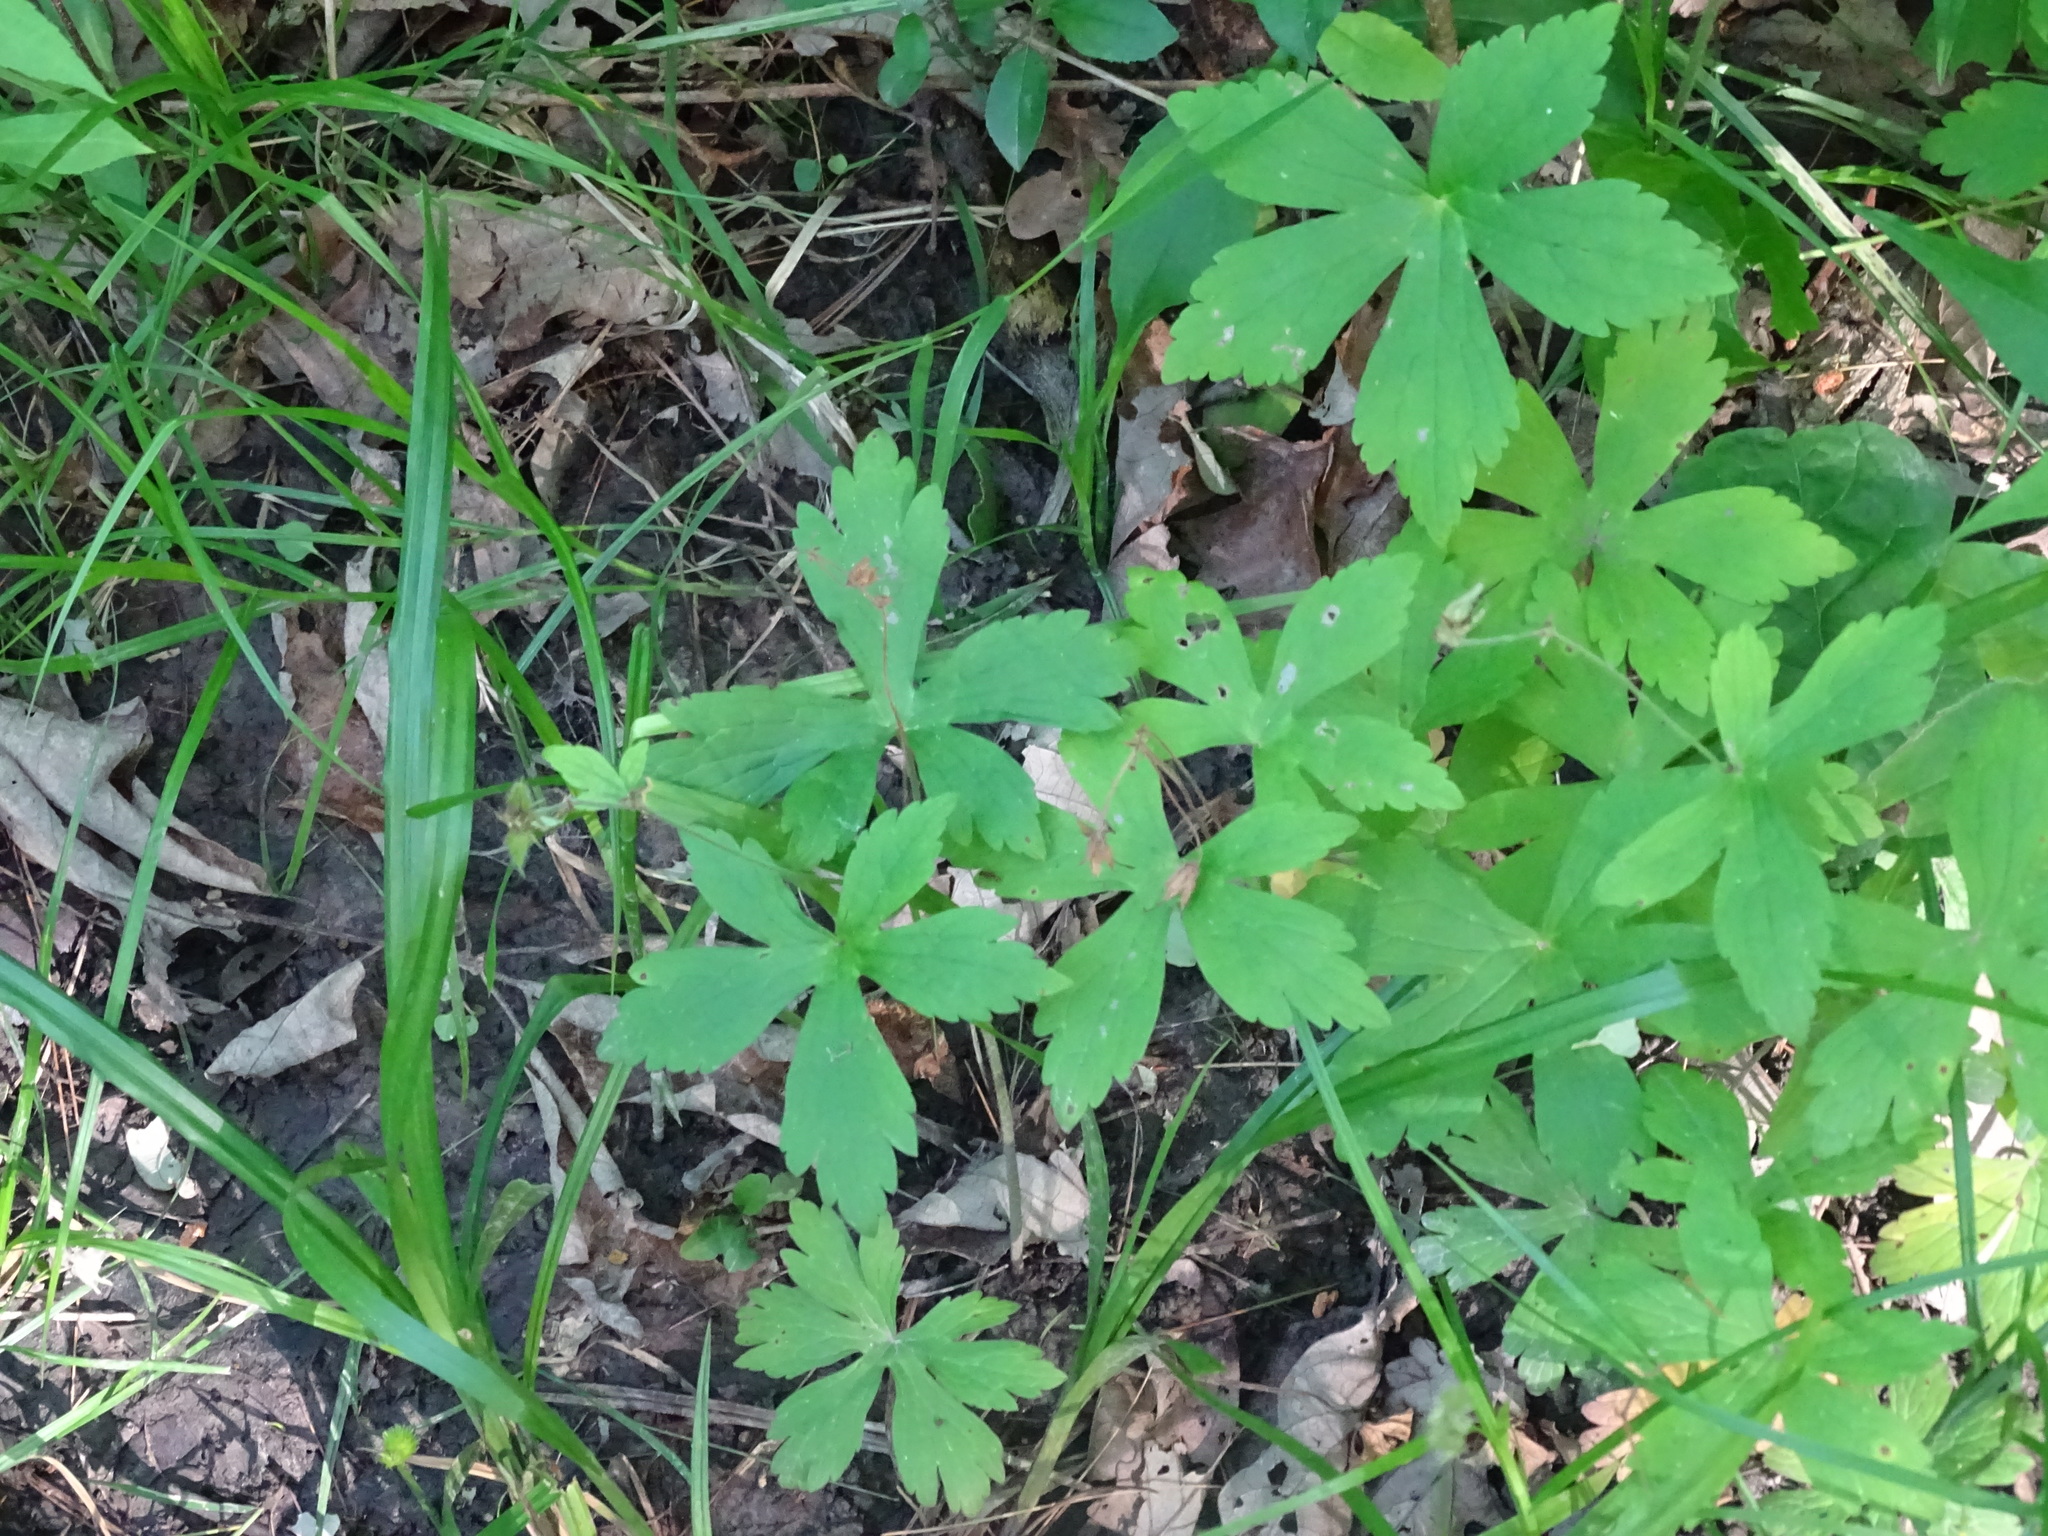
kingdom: Plantae
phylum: Tracheophyta
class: Magnoliopsida
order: Geraniales
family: Geraniaceae
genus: Geranium
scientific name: Geranium maculatum
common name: Spotted geranium
